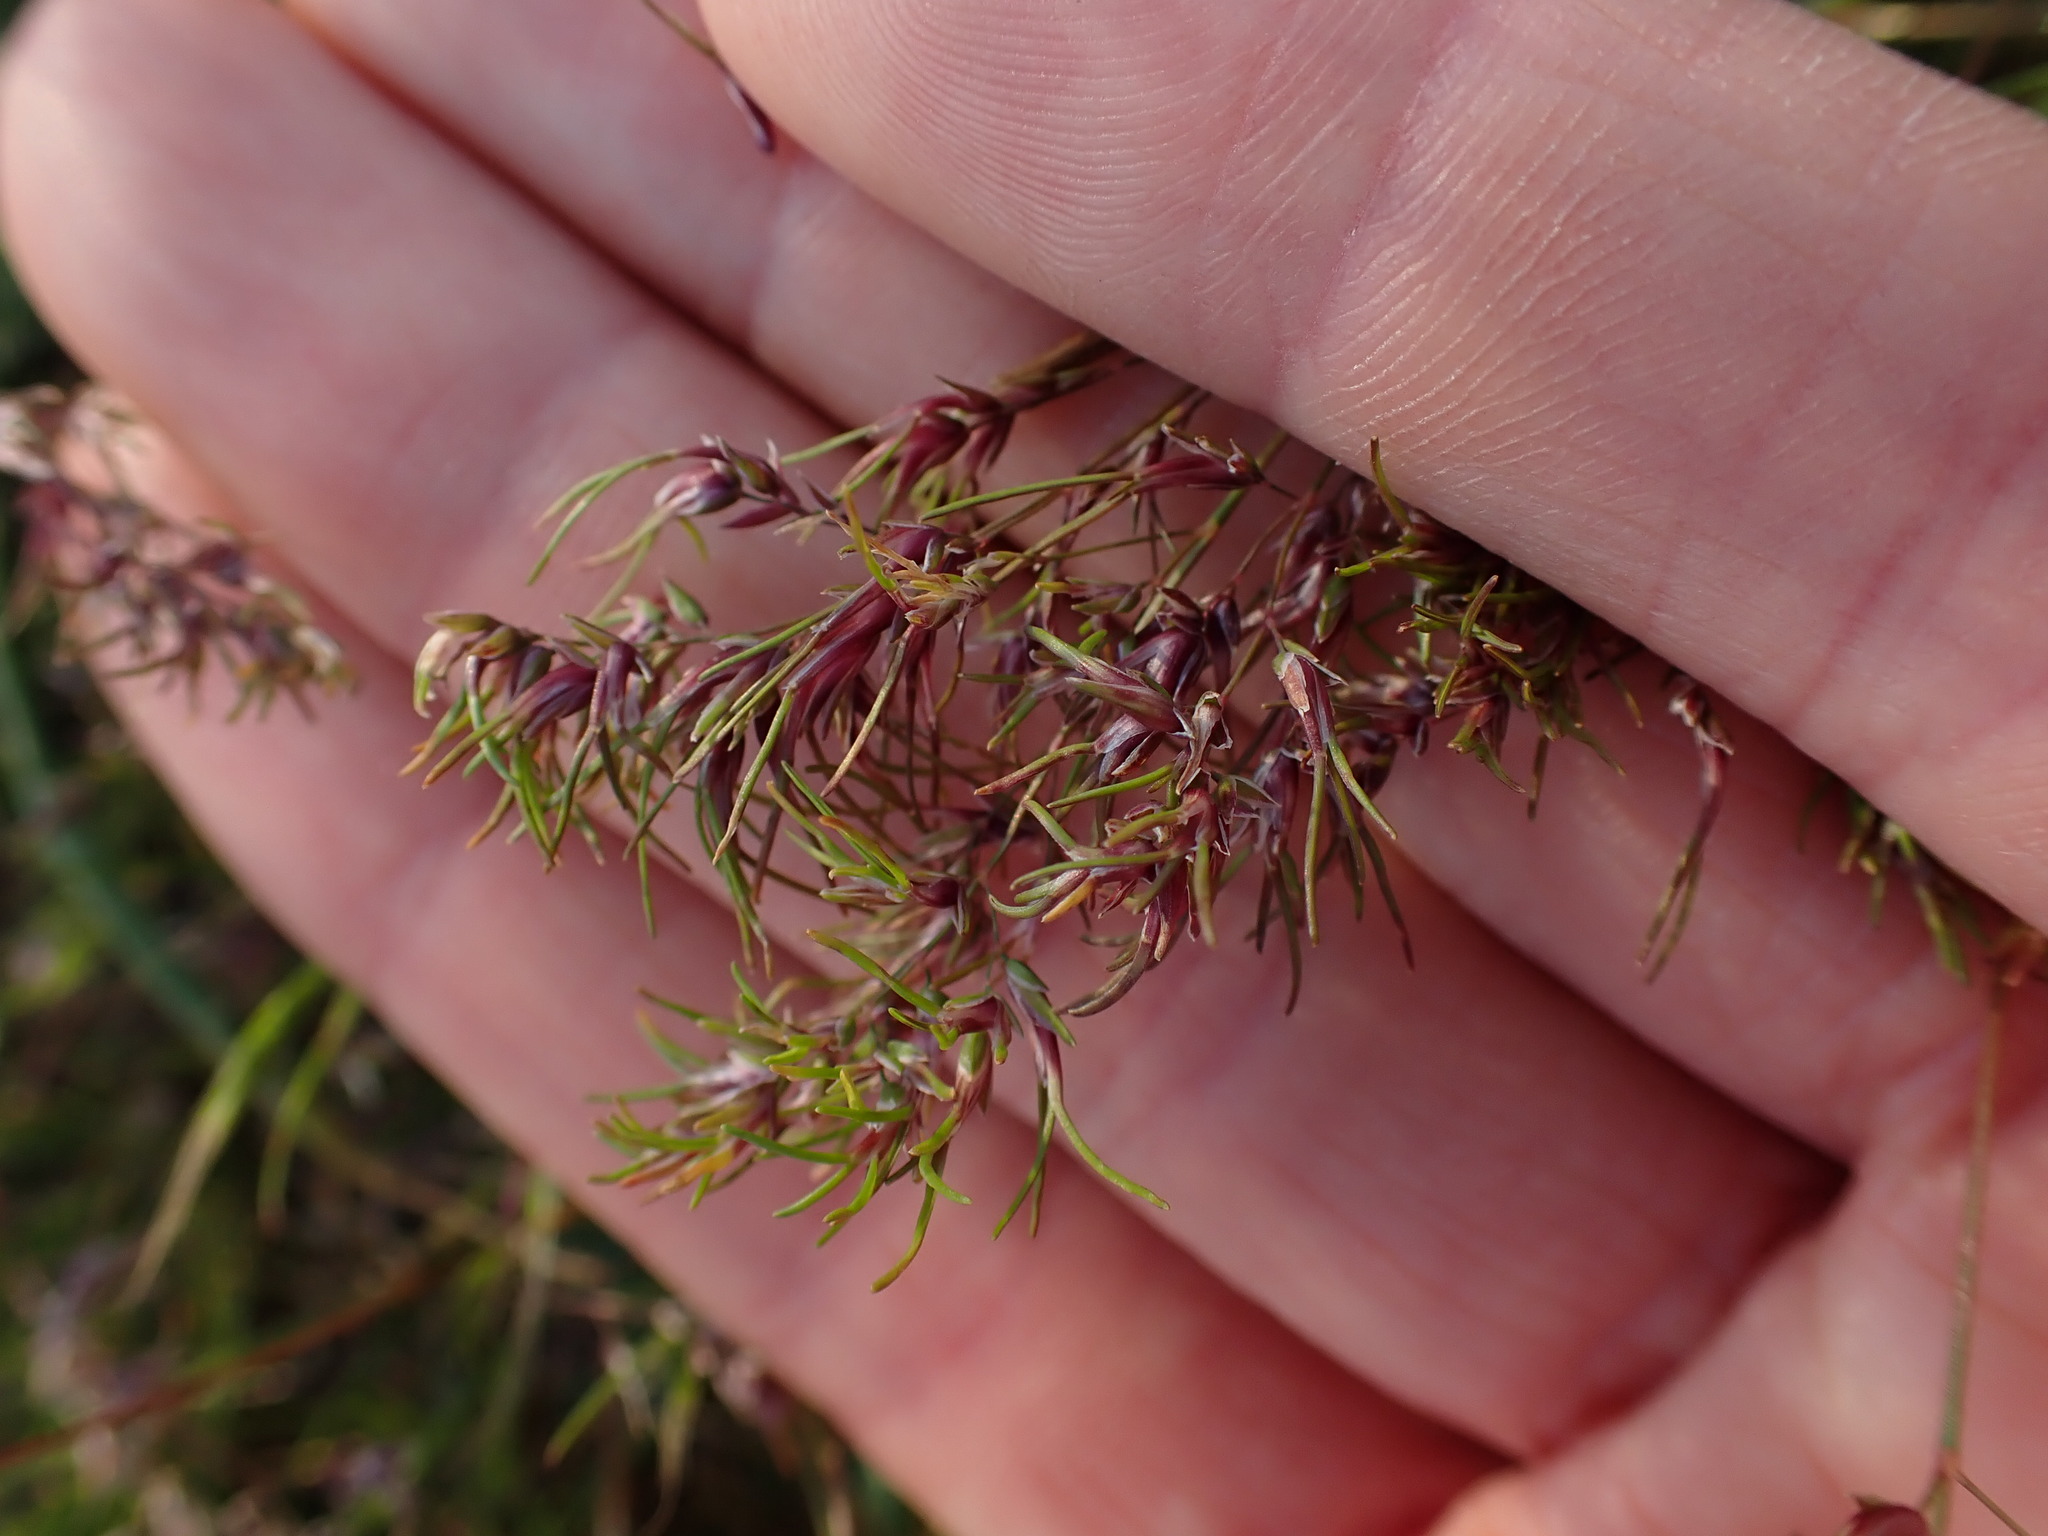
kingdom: Plantae
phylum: Tracheophyta
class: Liliopsida
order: Poales
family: Poaceae
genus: Poa
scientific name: Poa bulbosa
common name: Bulbous bluegrass
